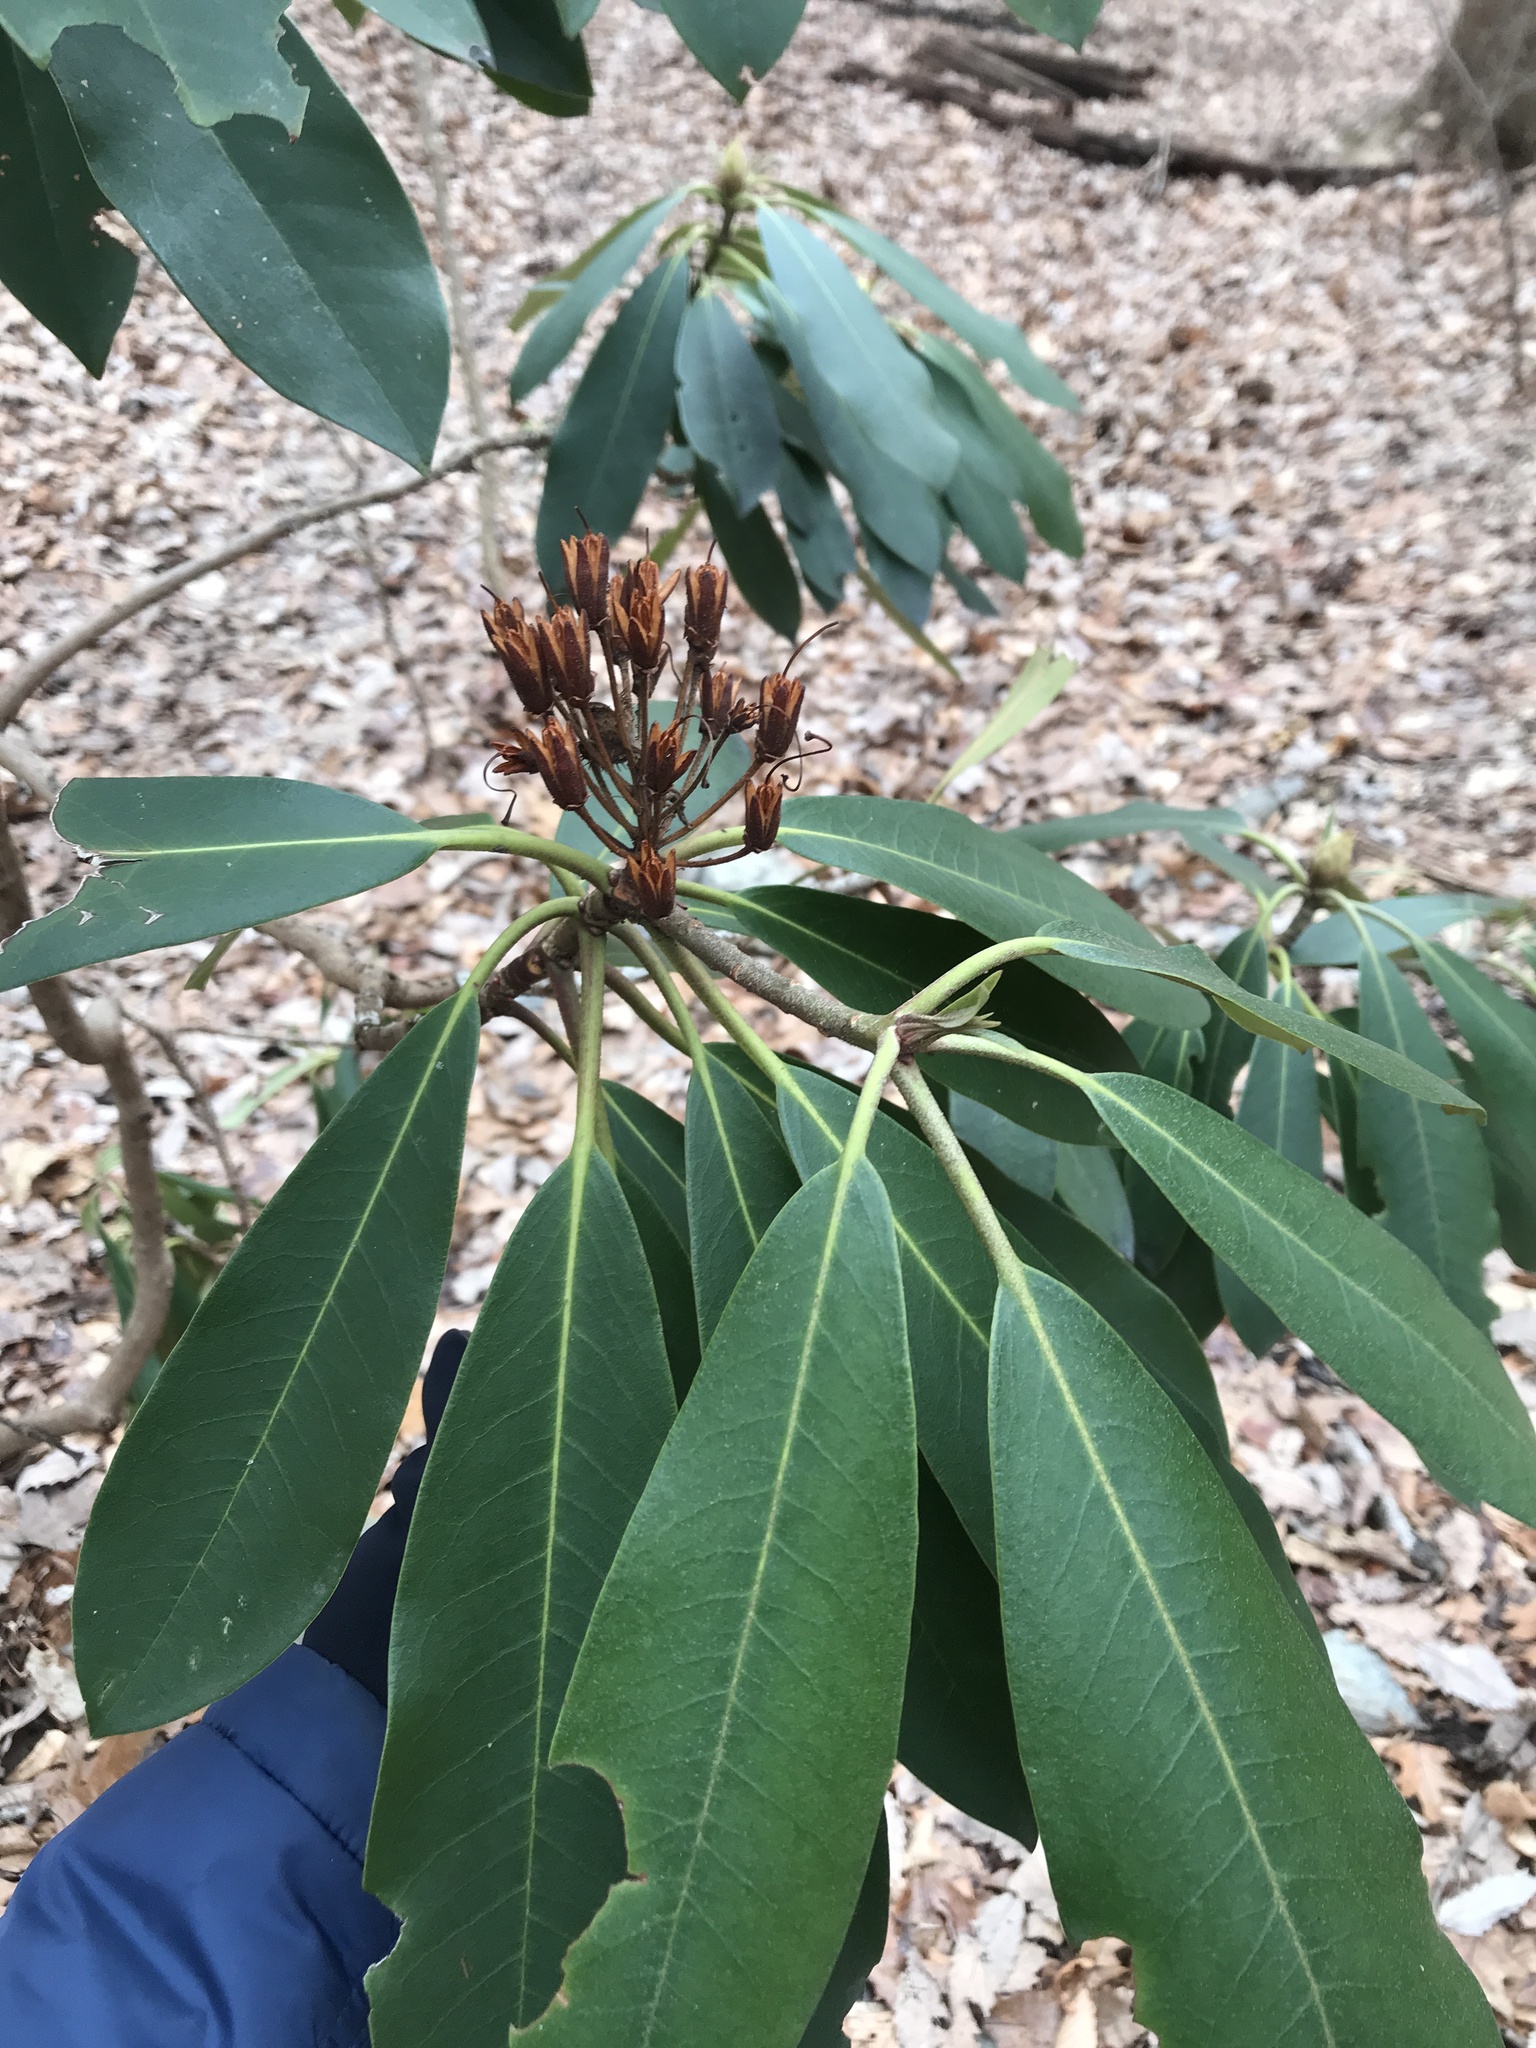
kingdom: Plantae
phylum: Tracheophyta
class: Magnoliopsida
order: Ericales
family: Ericaceae
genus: Rhododendron
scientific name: Rhododendron maximum
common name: Great rhododendron
